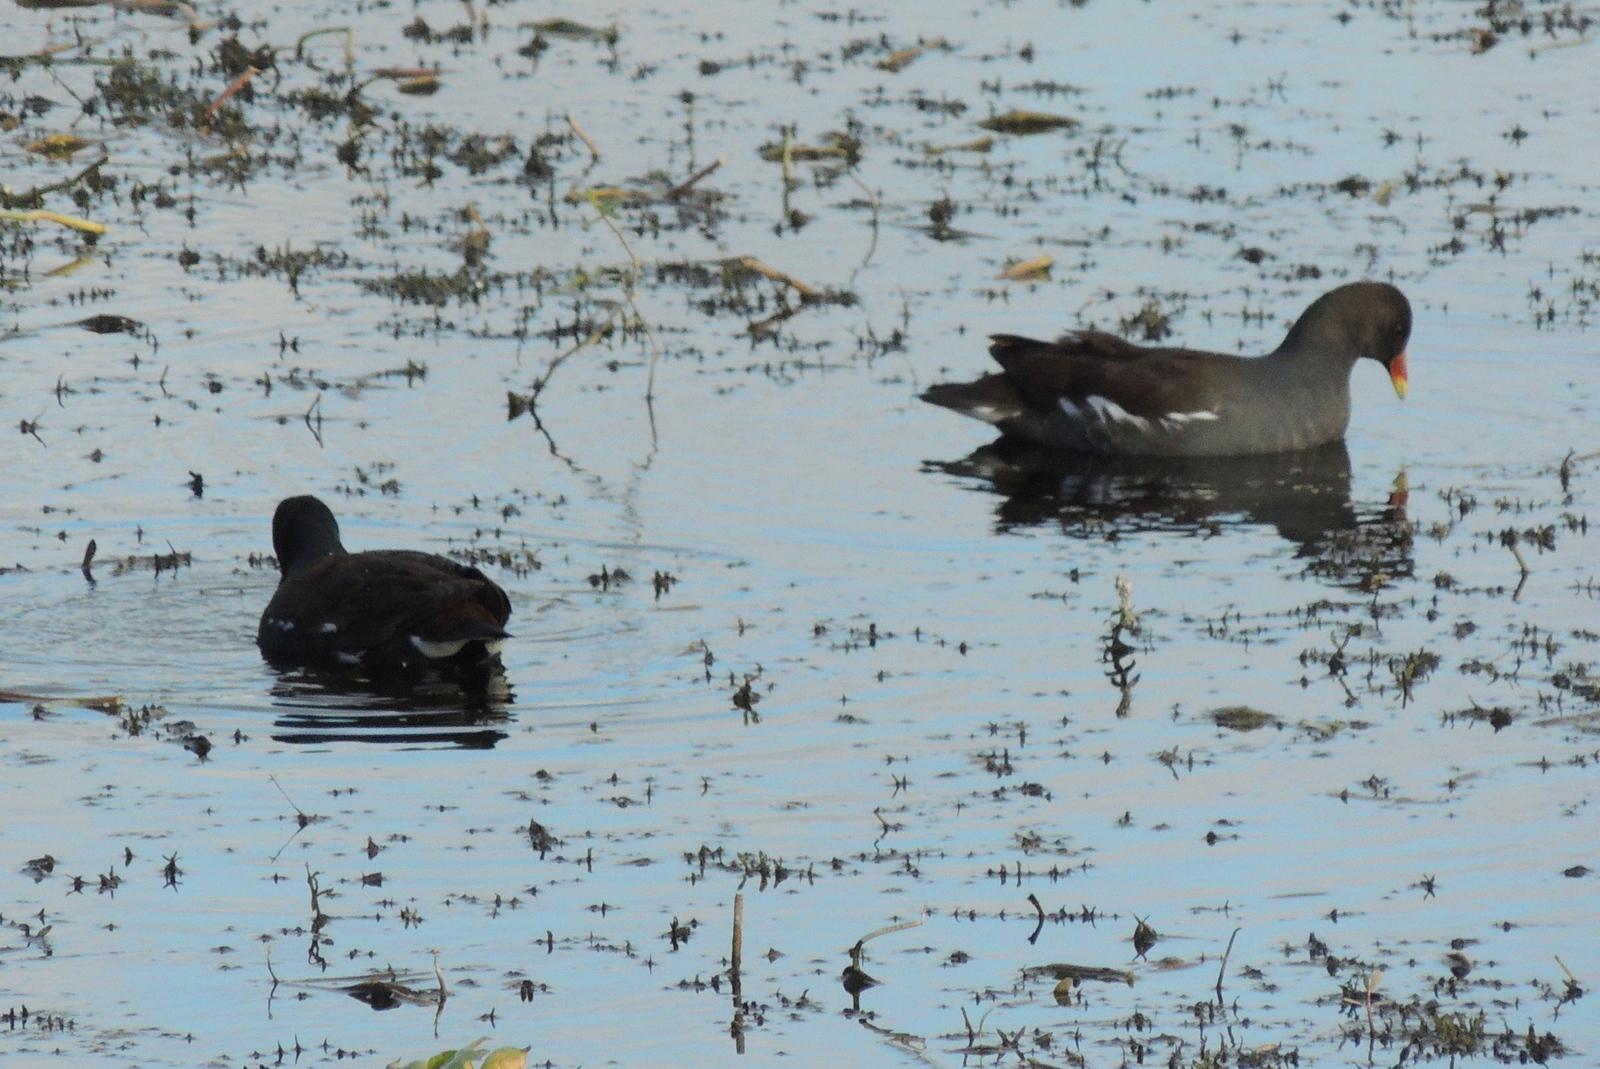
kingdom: Animalia
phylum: Chordata
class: Aves
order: Gruiformes
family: Rallidae
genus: Gallinula
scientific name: Gallinula chloropus
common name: Common moorhen
